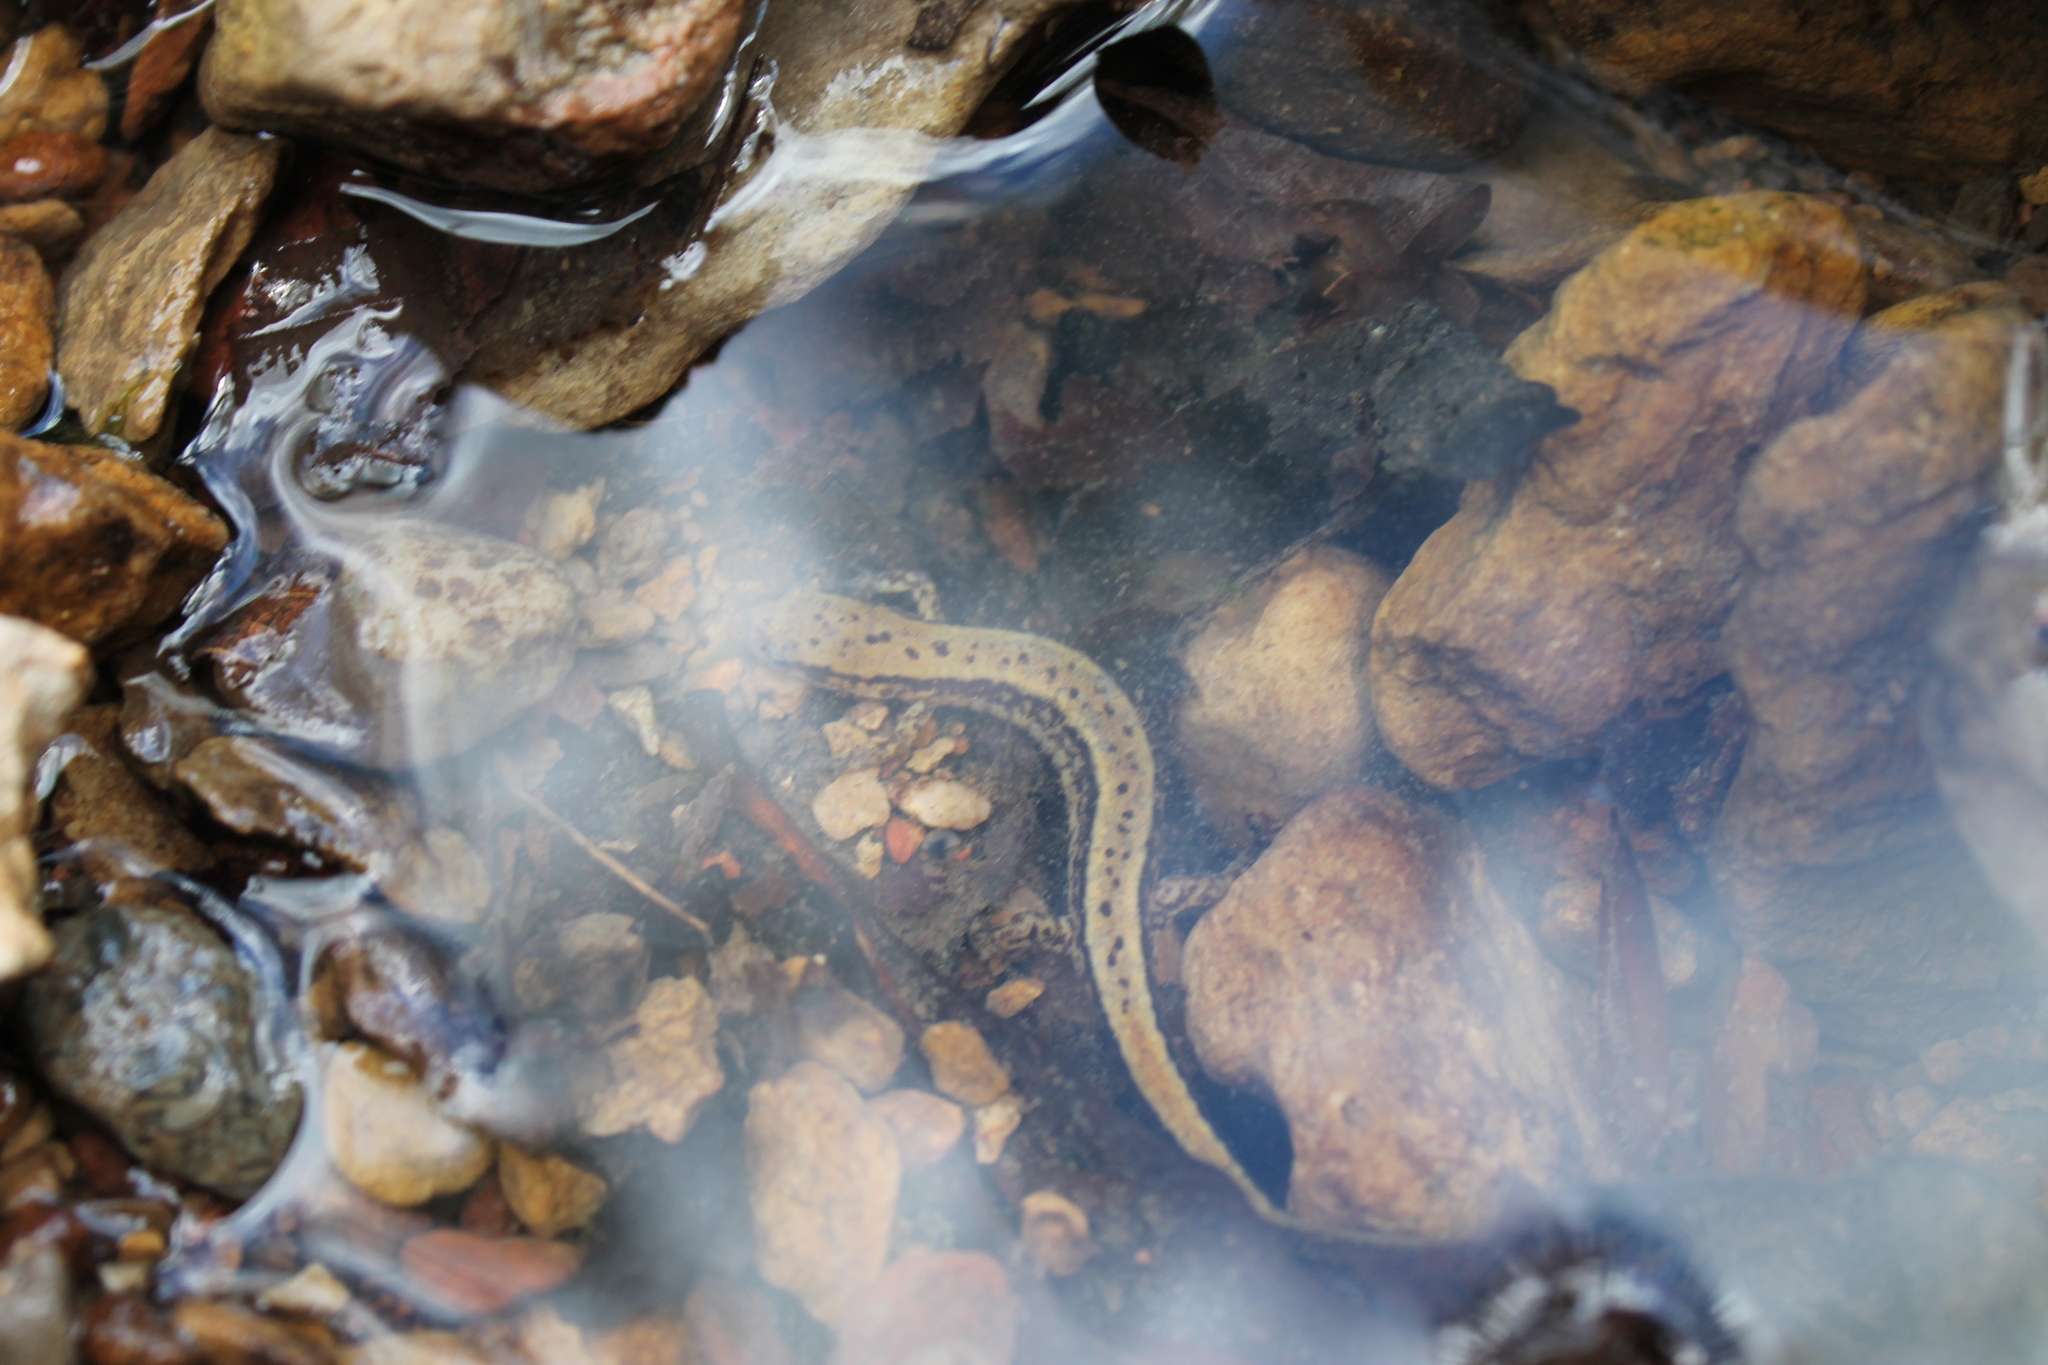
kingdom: Animalia
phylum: Chordata
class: Amphibia
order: Caudata
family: Plethodontidae
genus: Eurycea
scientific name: Eurycea cirrigera
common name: Southern two-lined salamander
